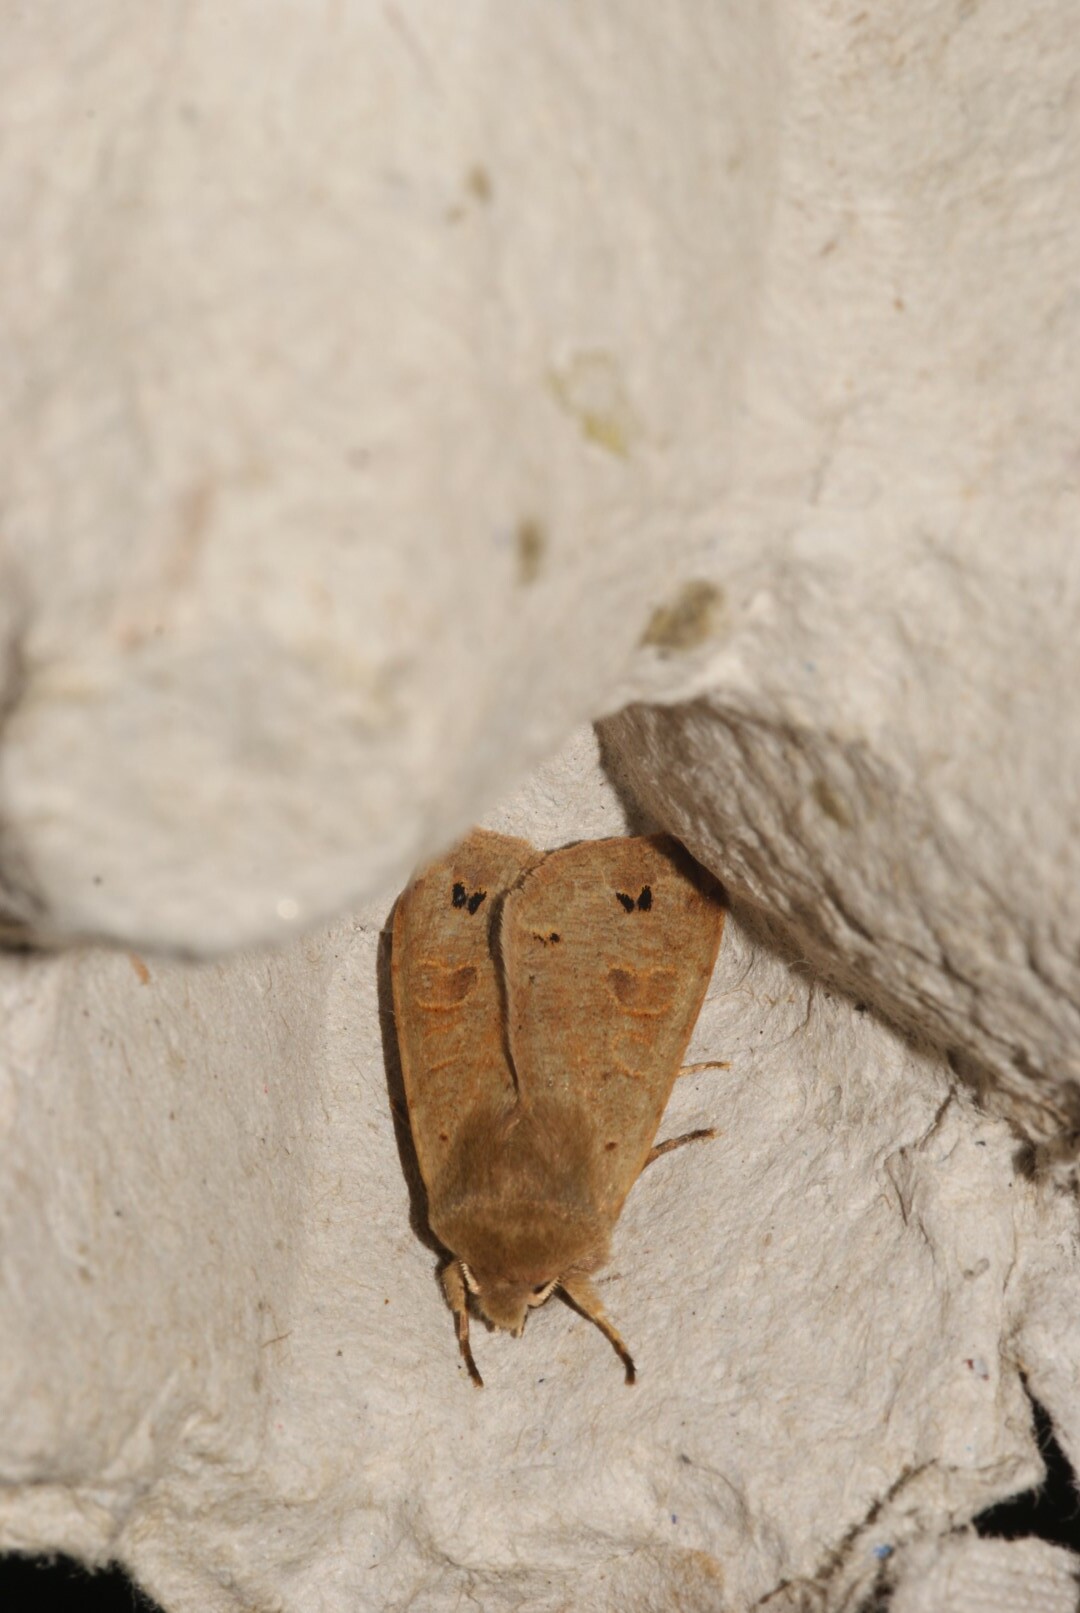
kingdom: Animalia
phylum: Arthropoda
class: Insecta
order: Lepidoptera
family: Noctuidae
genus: Anorthoa
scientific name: Anorthoa munda
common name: Twin-spotted quaker
